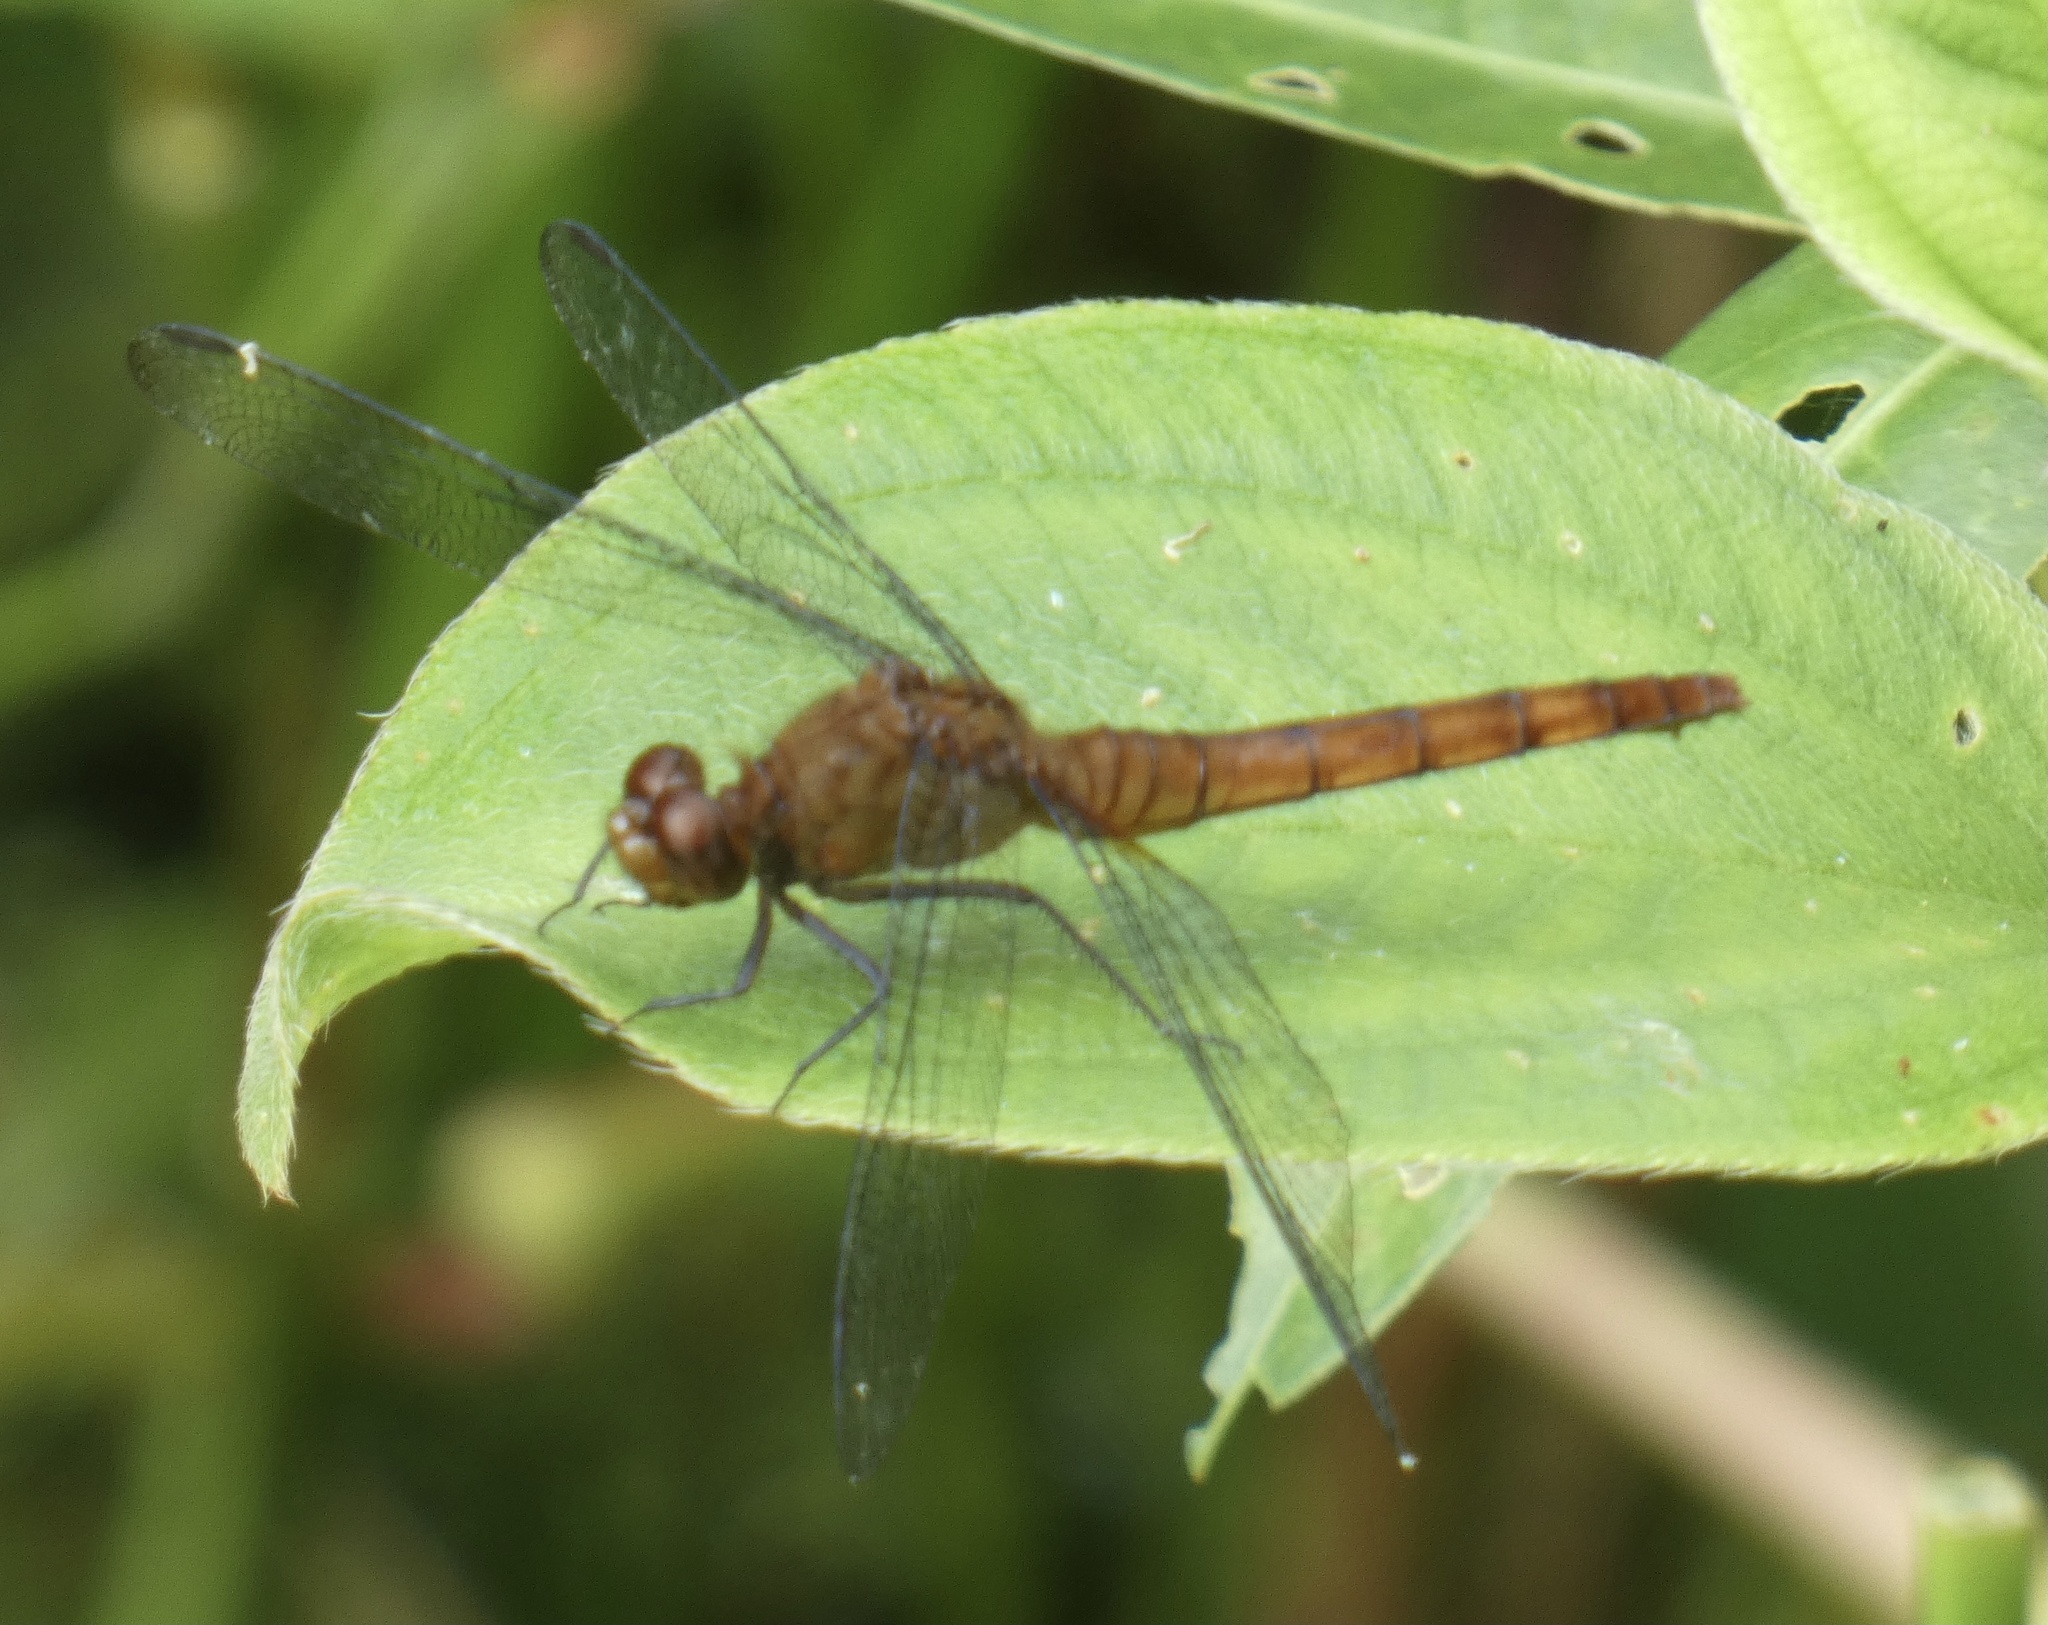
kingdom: Animalia
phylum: Arthropoda
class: Insecta
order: Odonata
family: Libellulidae
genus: Erythemis
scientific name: Erythemis mithroides
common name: Claret pondhawk
